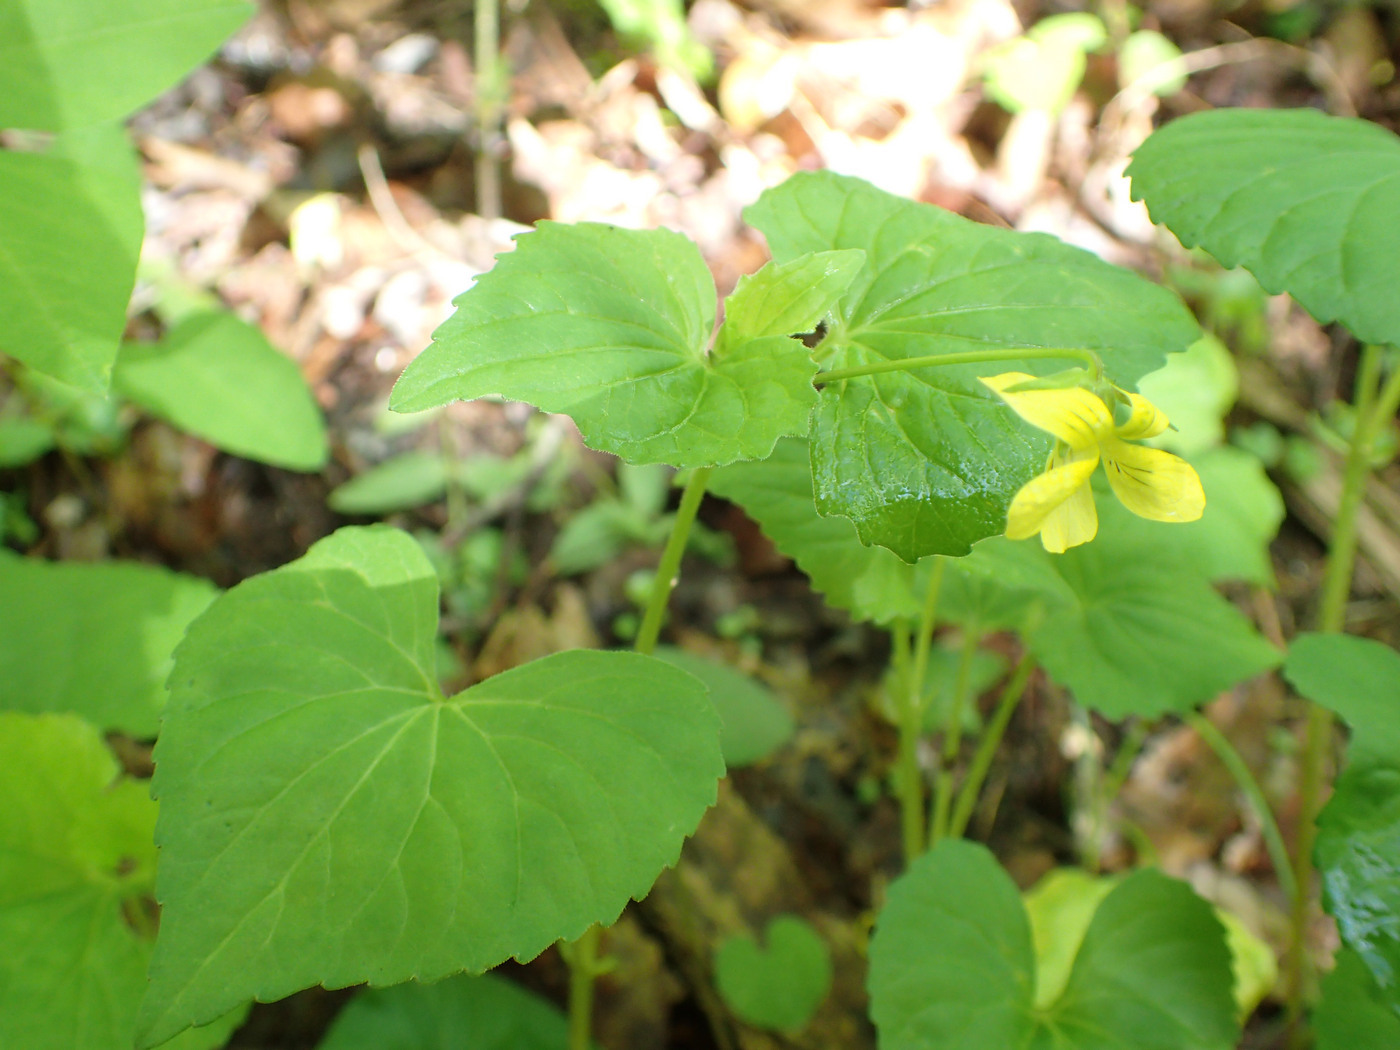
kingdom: Plantae
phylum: Tracheophyta
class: Magnoliopsida
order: Malpighiales
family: Violaceae
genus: Viola
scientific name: Viola eriocarpa
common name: Smooth yellow violet
